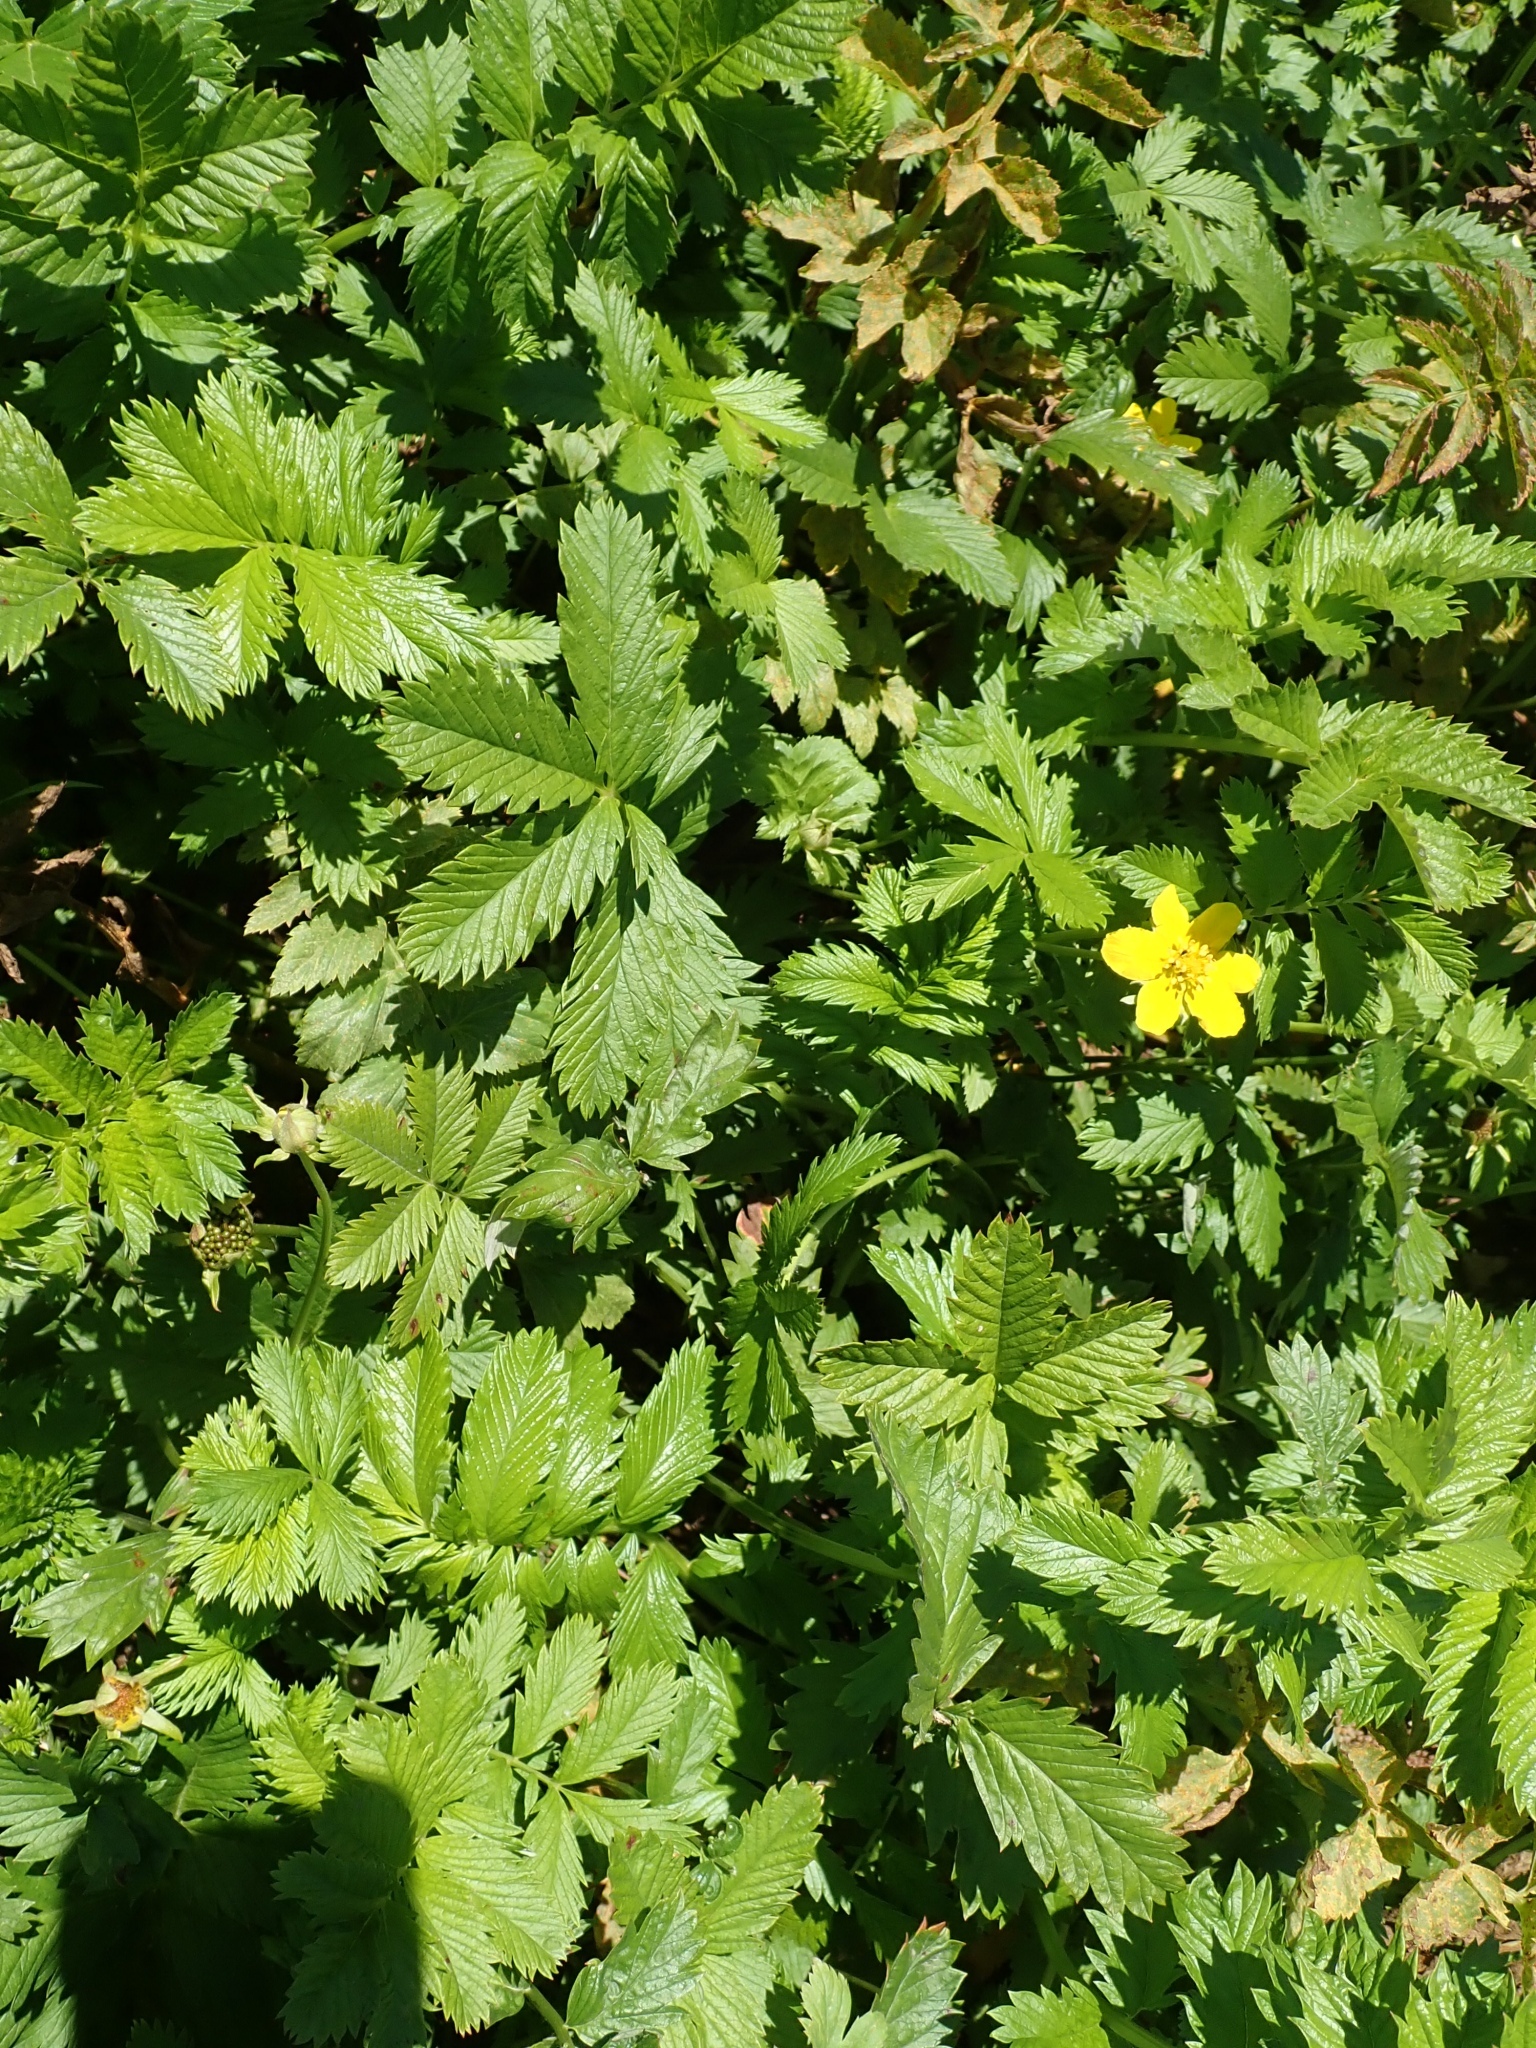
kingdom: Plantae
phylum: Tracheophyta
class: Magnoliopsida
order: Rosales
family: Rosaceae
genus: Argentina
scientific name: Argentina anserina
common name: Common silverweed
